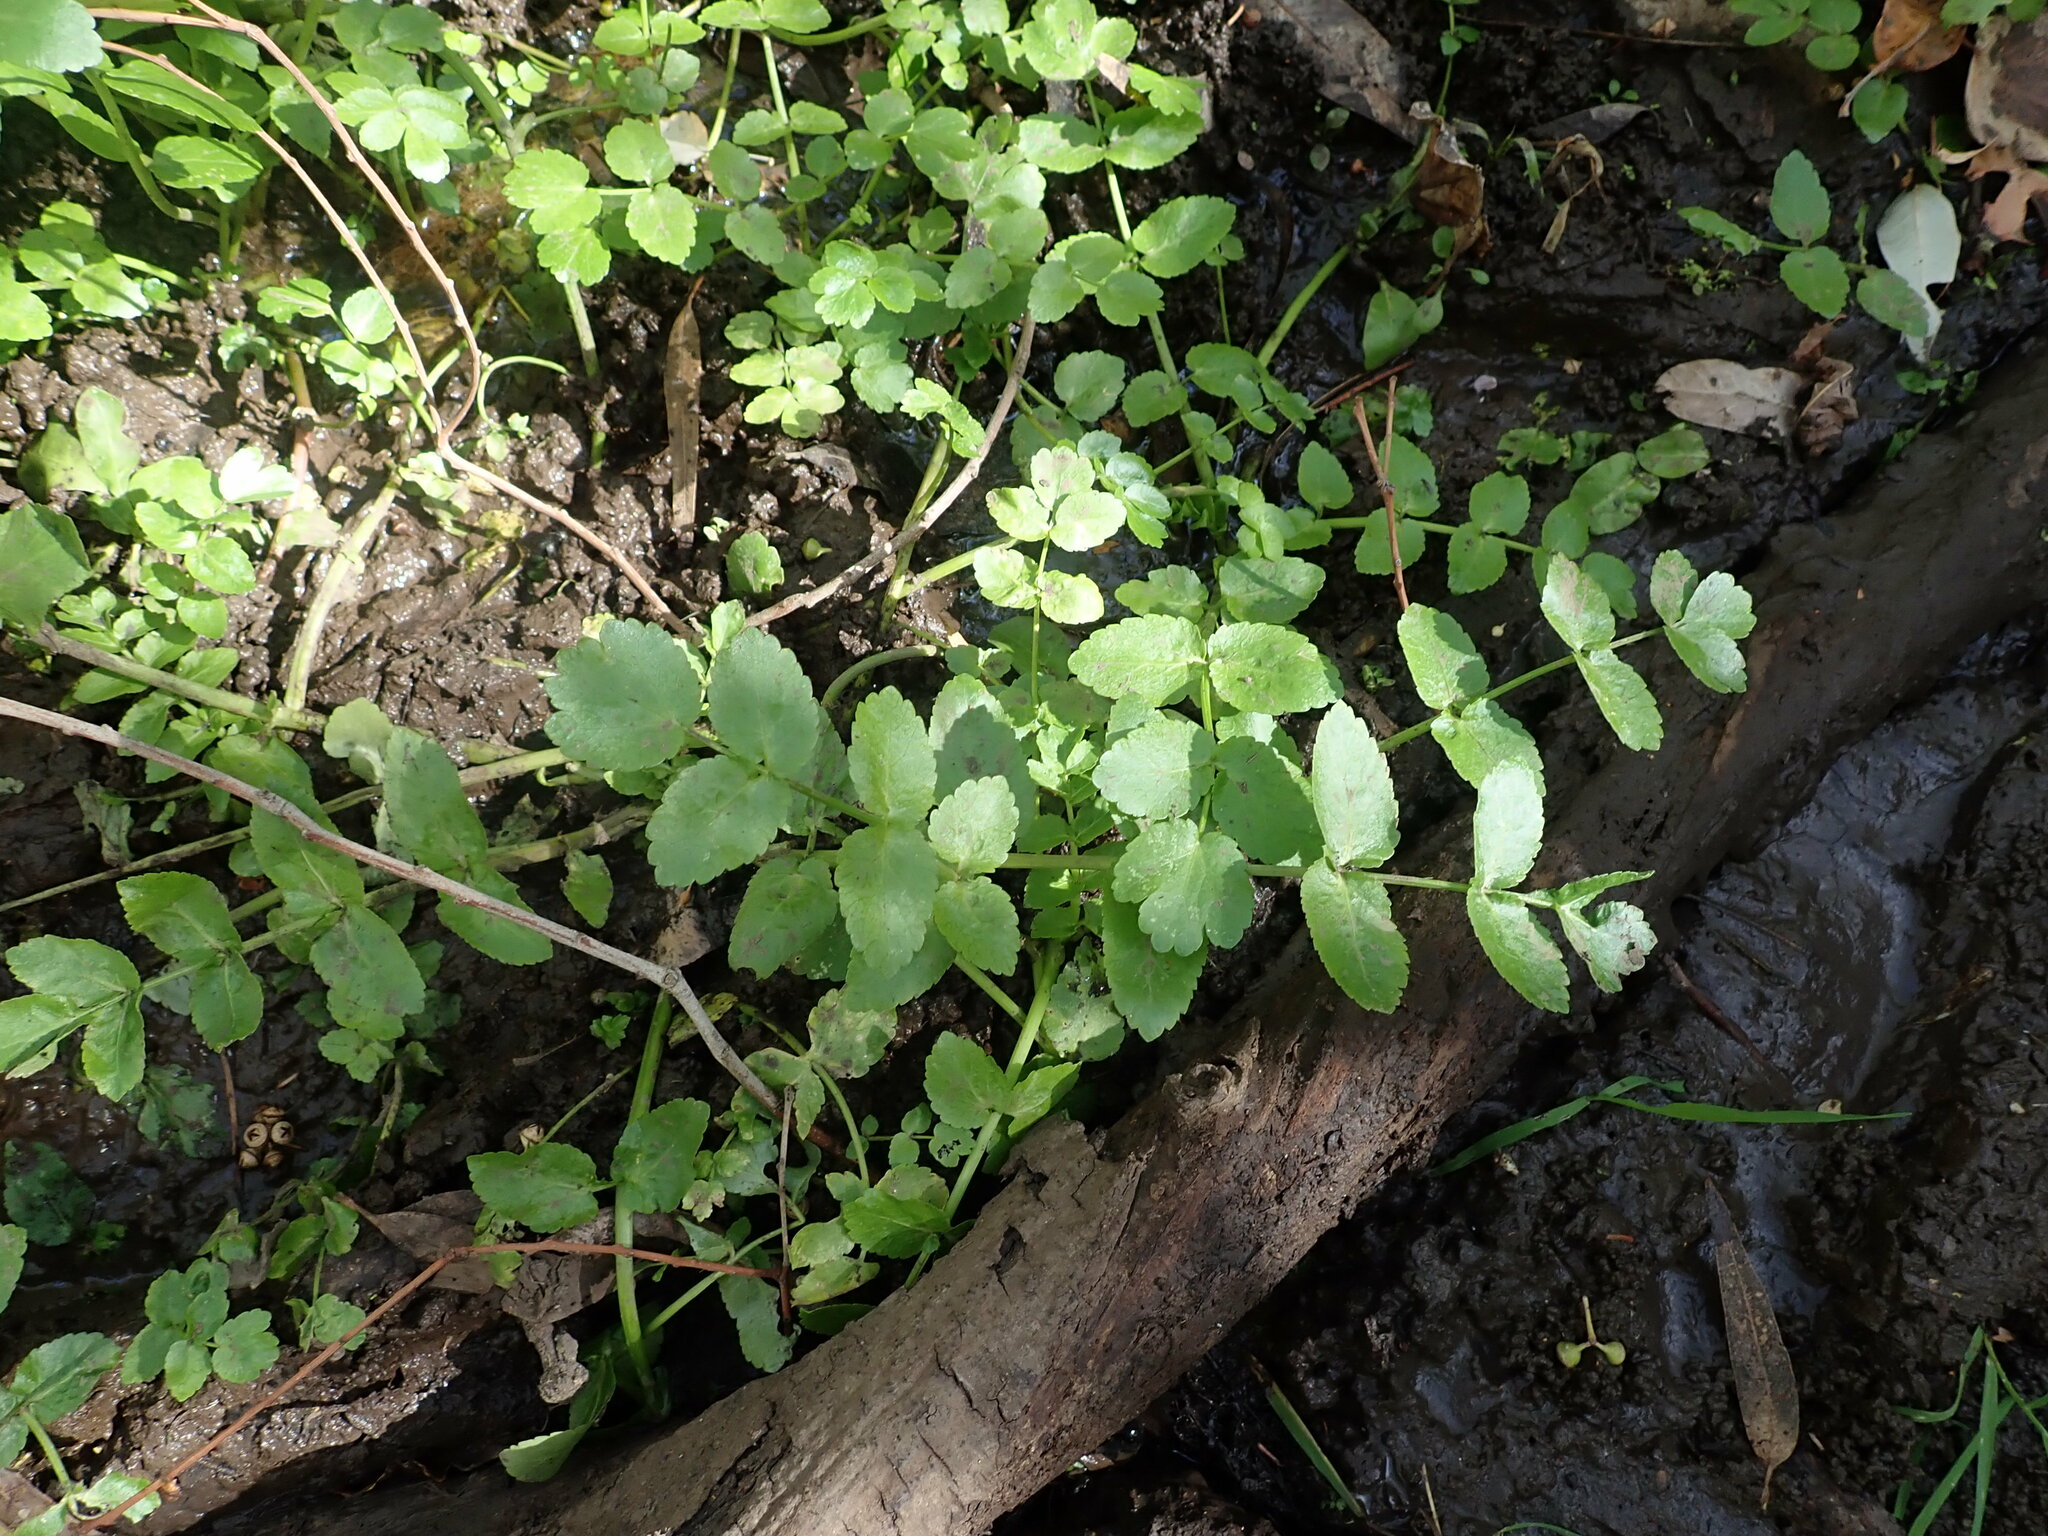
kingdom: Plantae
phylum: Tracheophyta
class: Magnoliopsida
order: Apiales
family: Apiaceae
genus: Helosciadium
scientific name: Helosciadium nodiflorum
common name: Fool's-watercress
